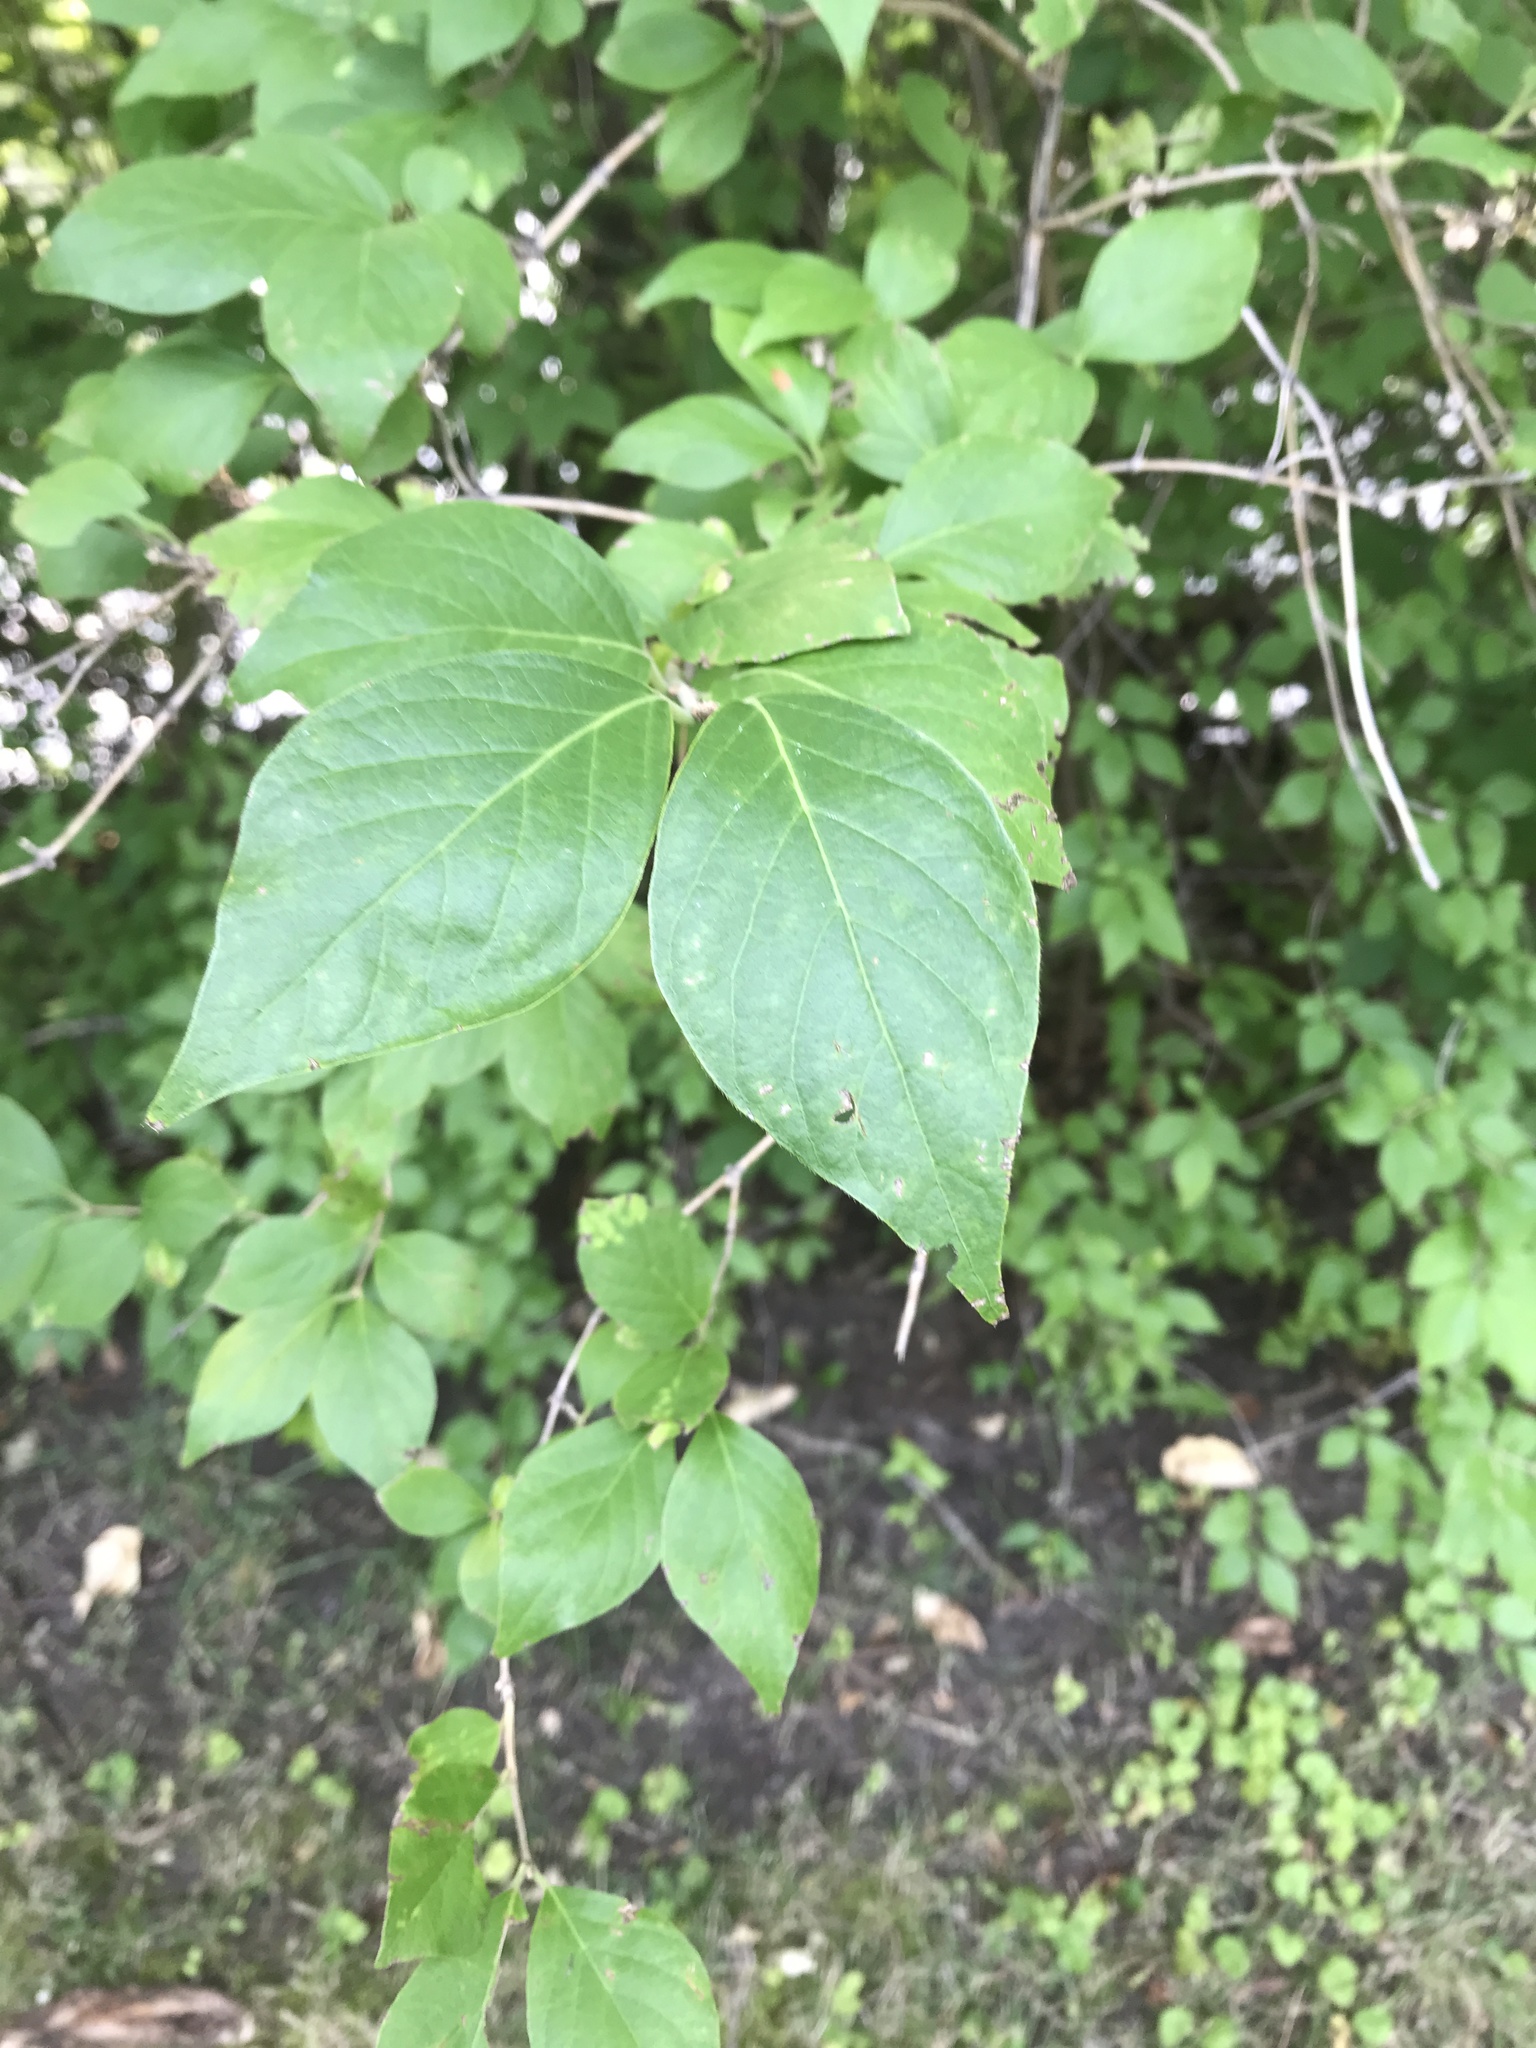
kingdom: Plantae
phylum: Tracheophyta
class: Magnoliopsida
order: Dipsacales
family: Caprifoliaceae
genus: Lonicera
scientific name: Lonicera maackii
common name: Amur honeysuckle
